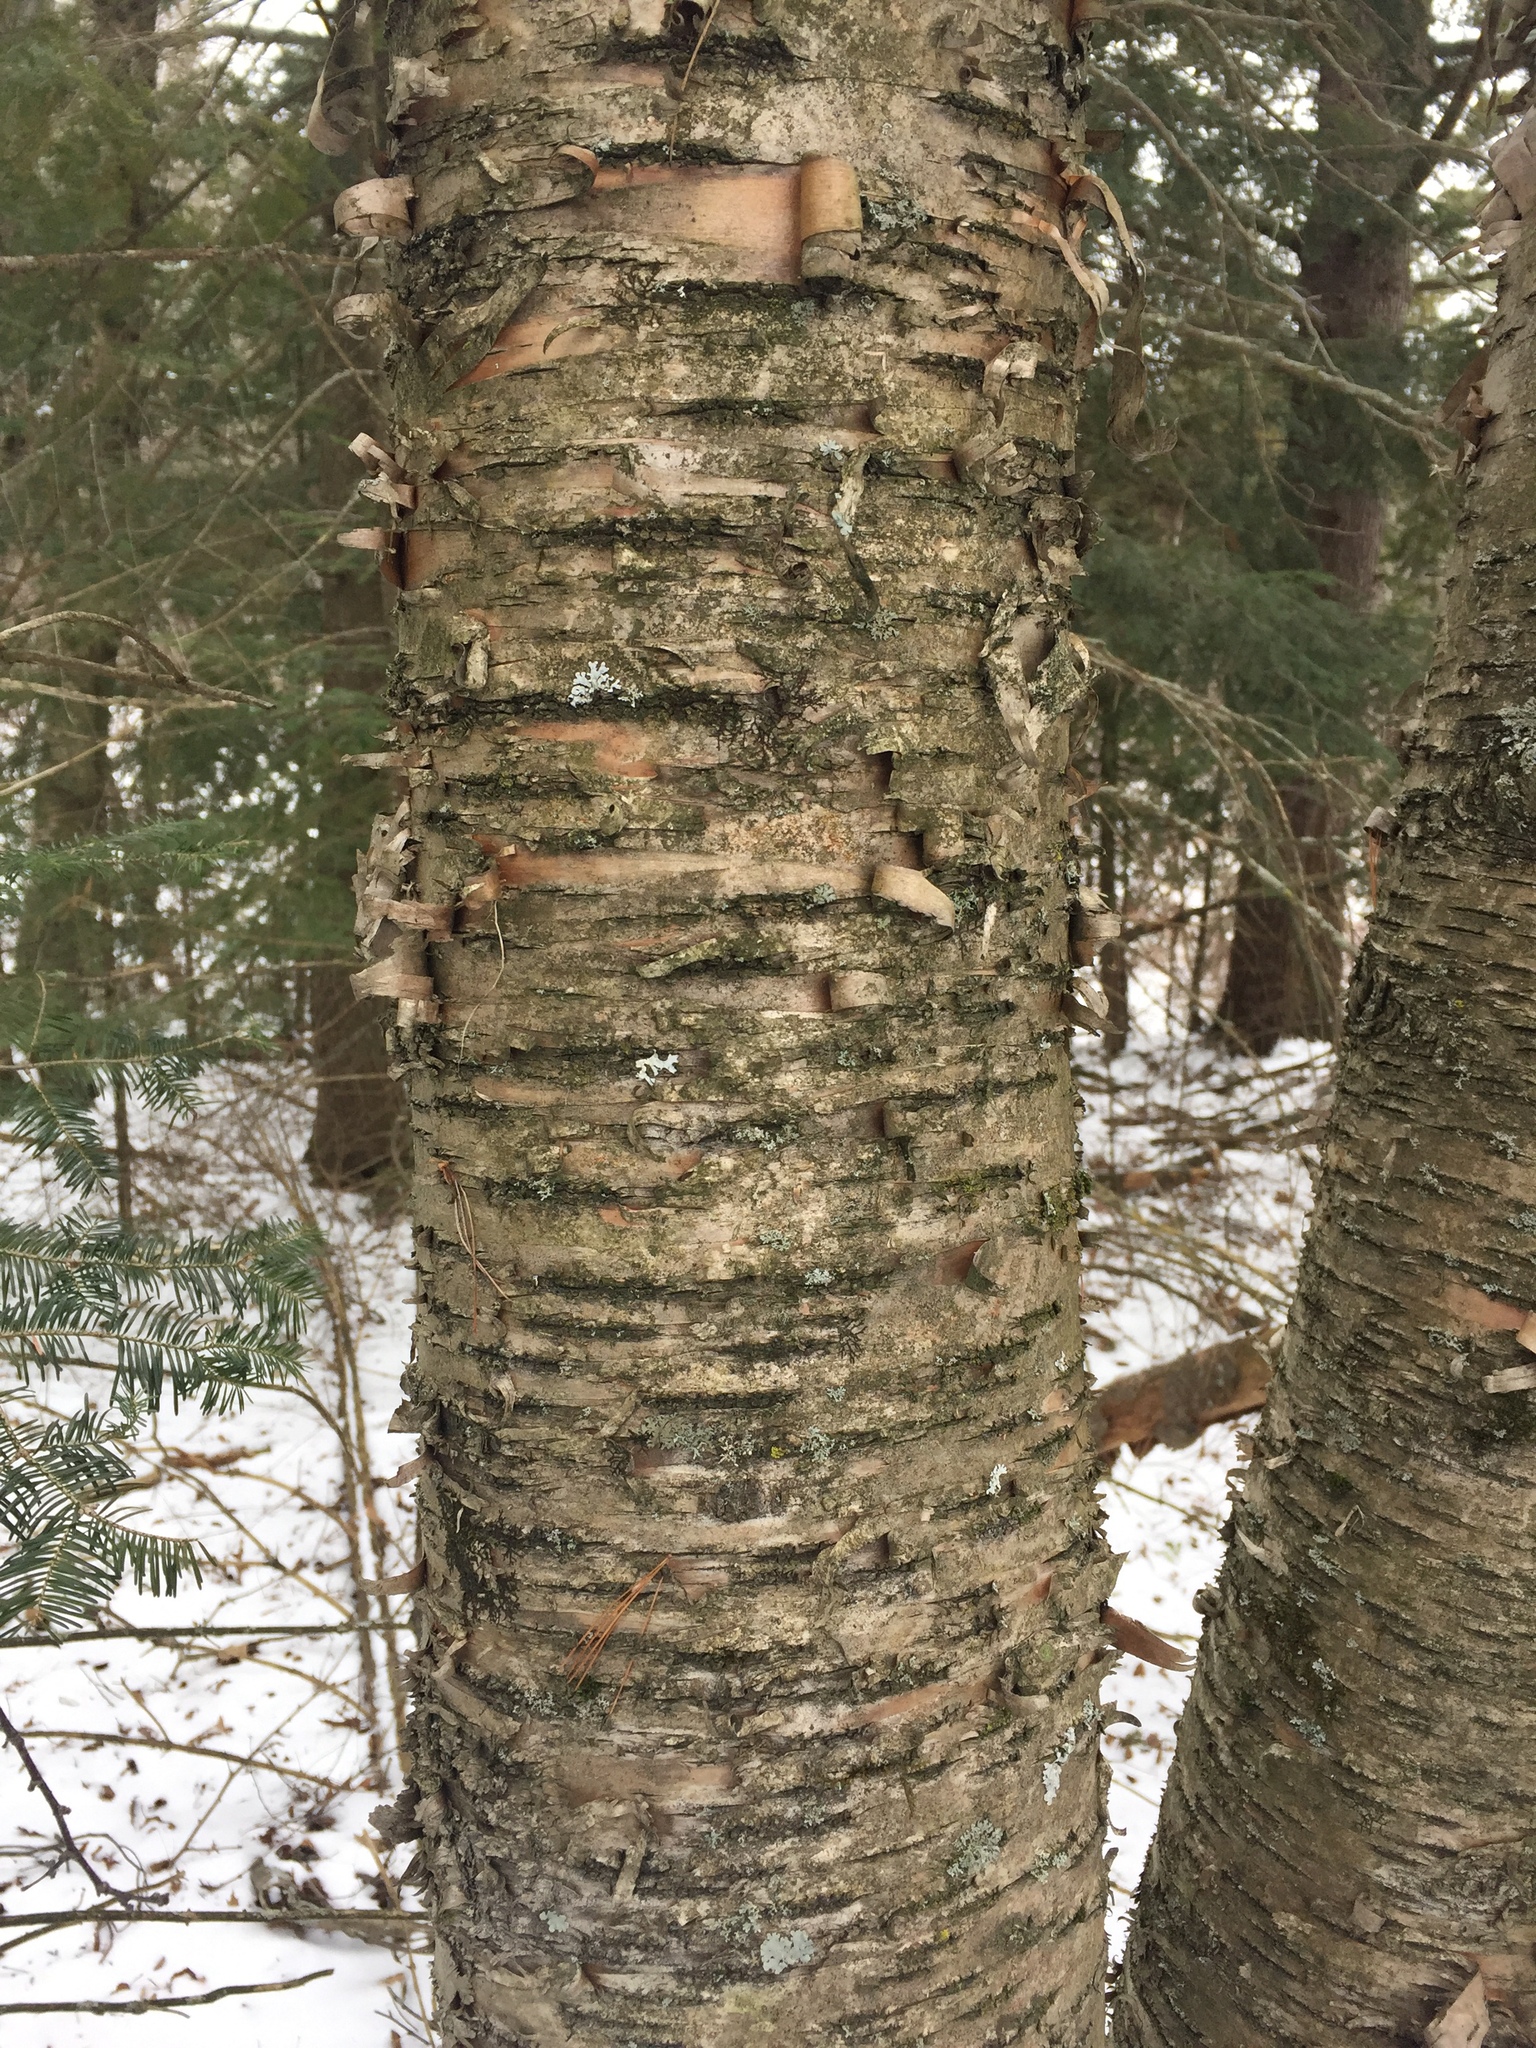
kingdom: Plantae
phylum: Tracheophyta
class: Magnoliopsida
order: Fagales
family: Betulaceae
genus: Betula
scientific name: Betula alleghaniensis
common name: Yellow birch
